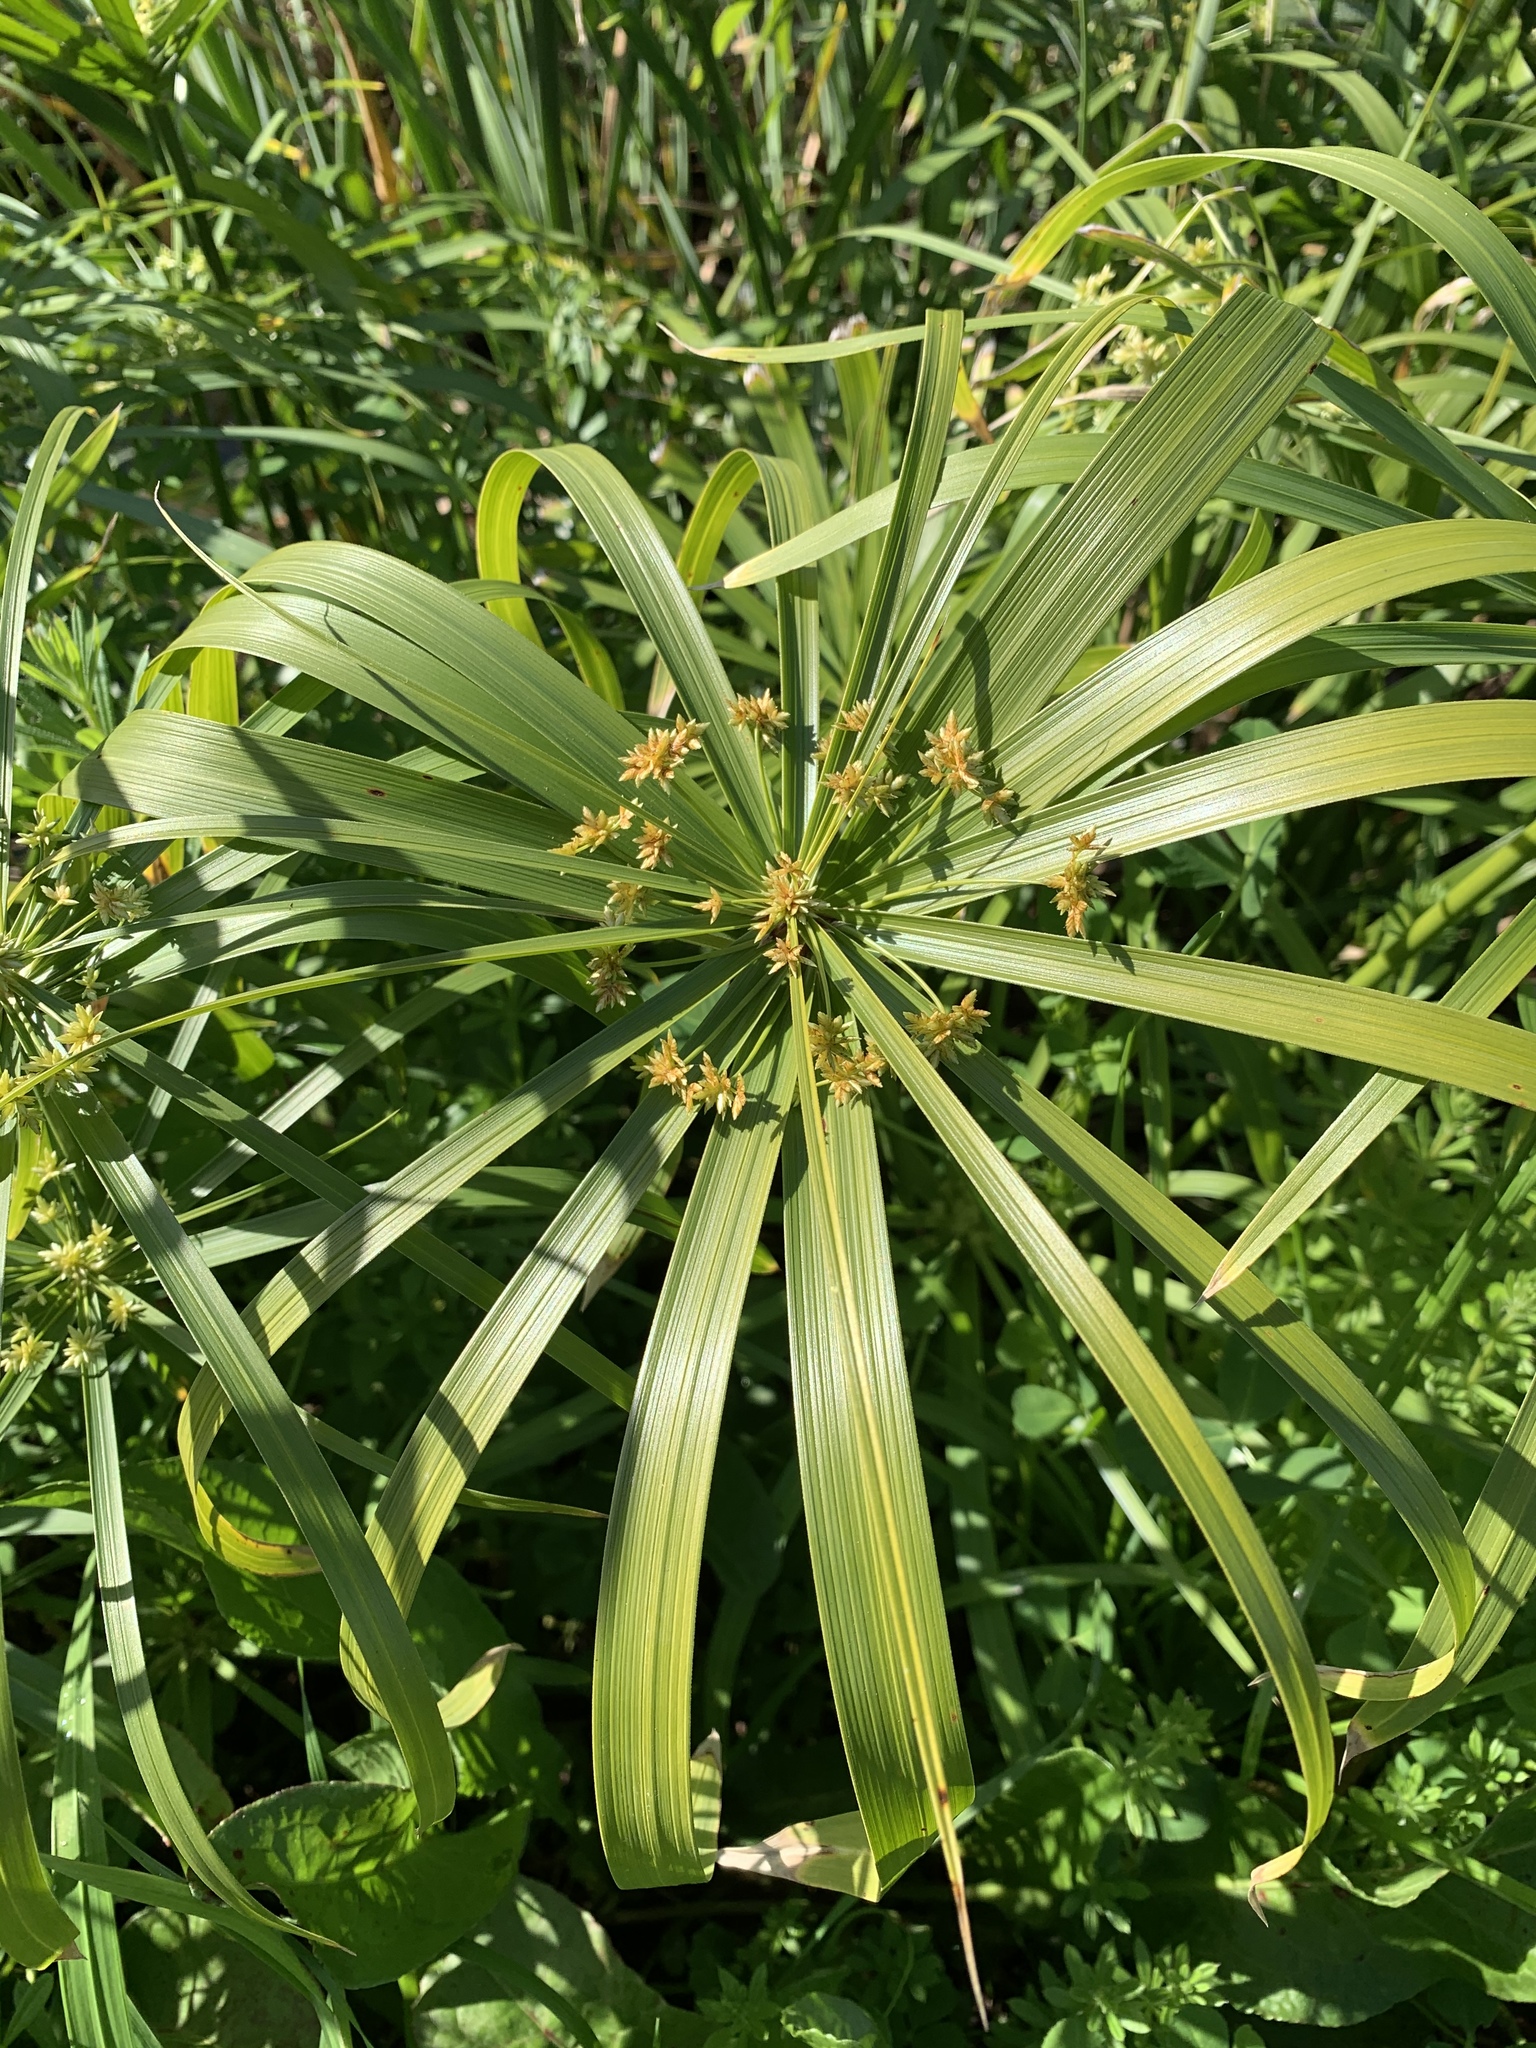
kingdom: Plantae
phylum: Tracheophyta
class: Liliopsida
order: Poales
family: Cyperaceae
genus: Cyperus
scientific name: Cyperus alternifolius
